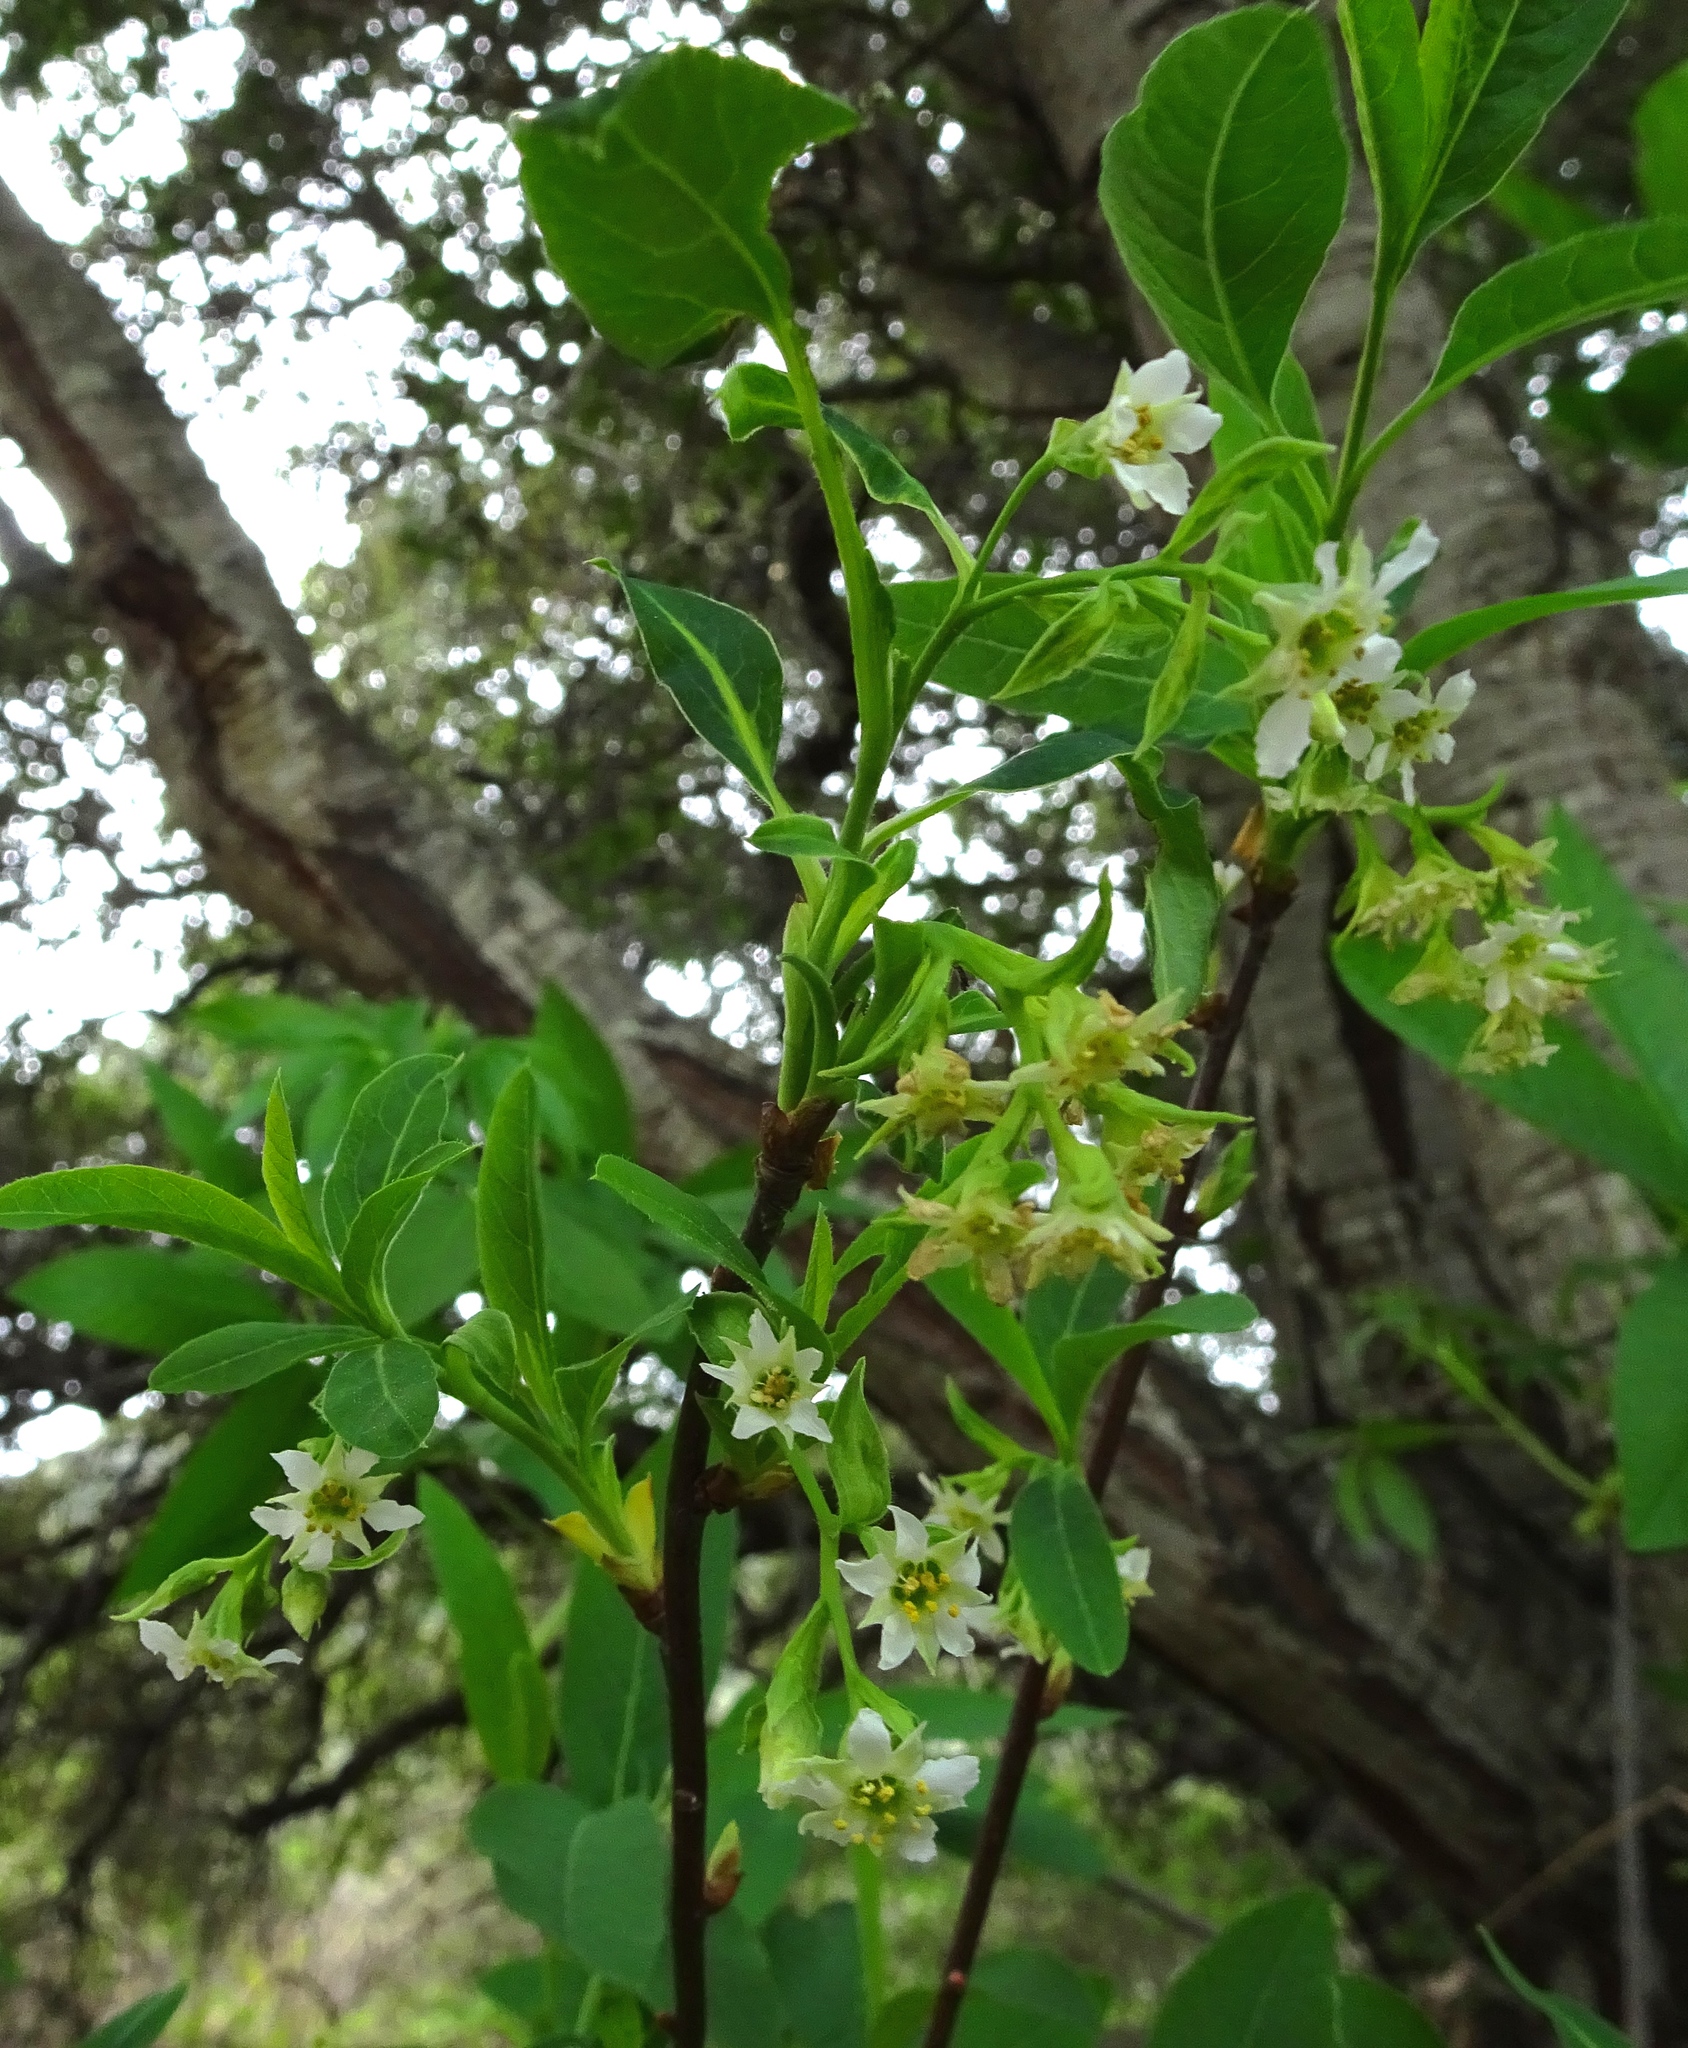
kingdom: Plantae
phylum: Tracheophyta
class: Magnoliopsida
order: Rosales
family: Rosaceae
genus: Oemleria
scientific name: Oemleria cerasiformis
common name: Osoberry
